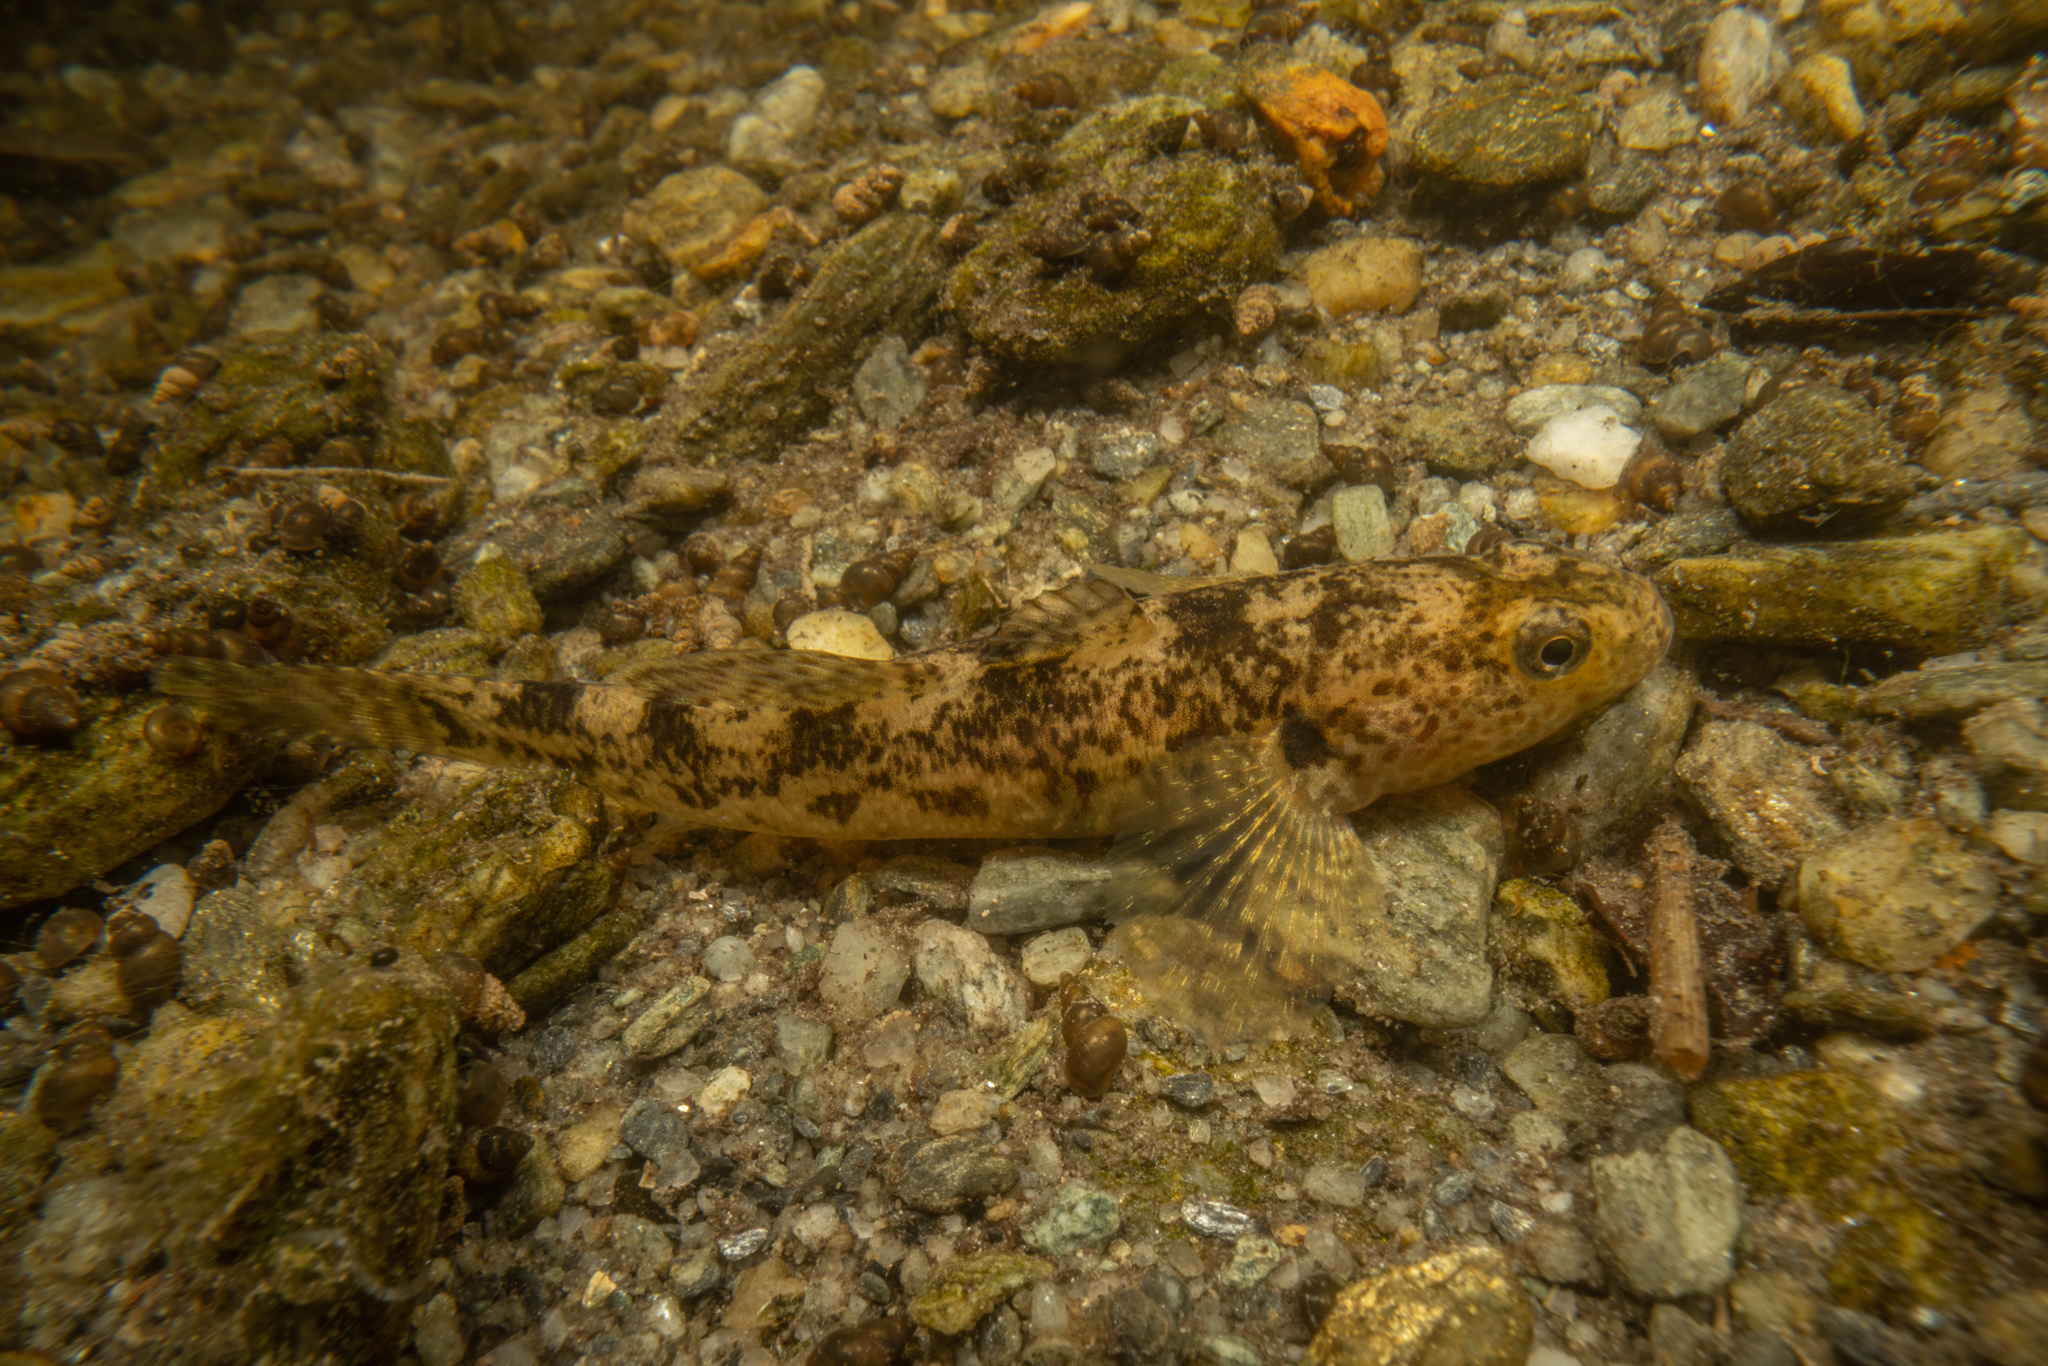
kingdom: Animalia
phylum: Chordata
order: Perciformes
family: Eleotridae
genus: Gobiomorphus
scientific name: Gobiomorphus cotidianus
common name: Common bully
